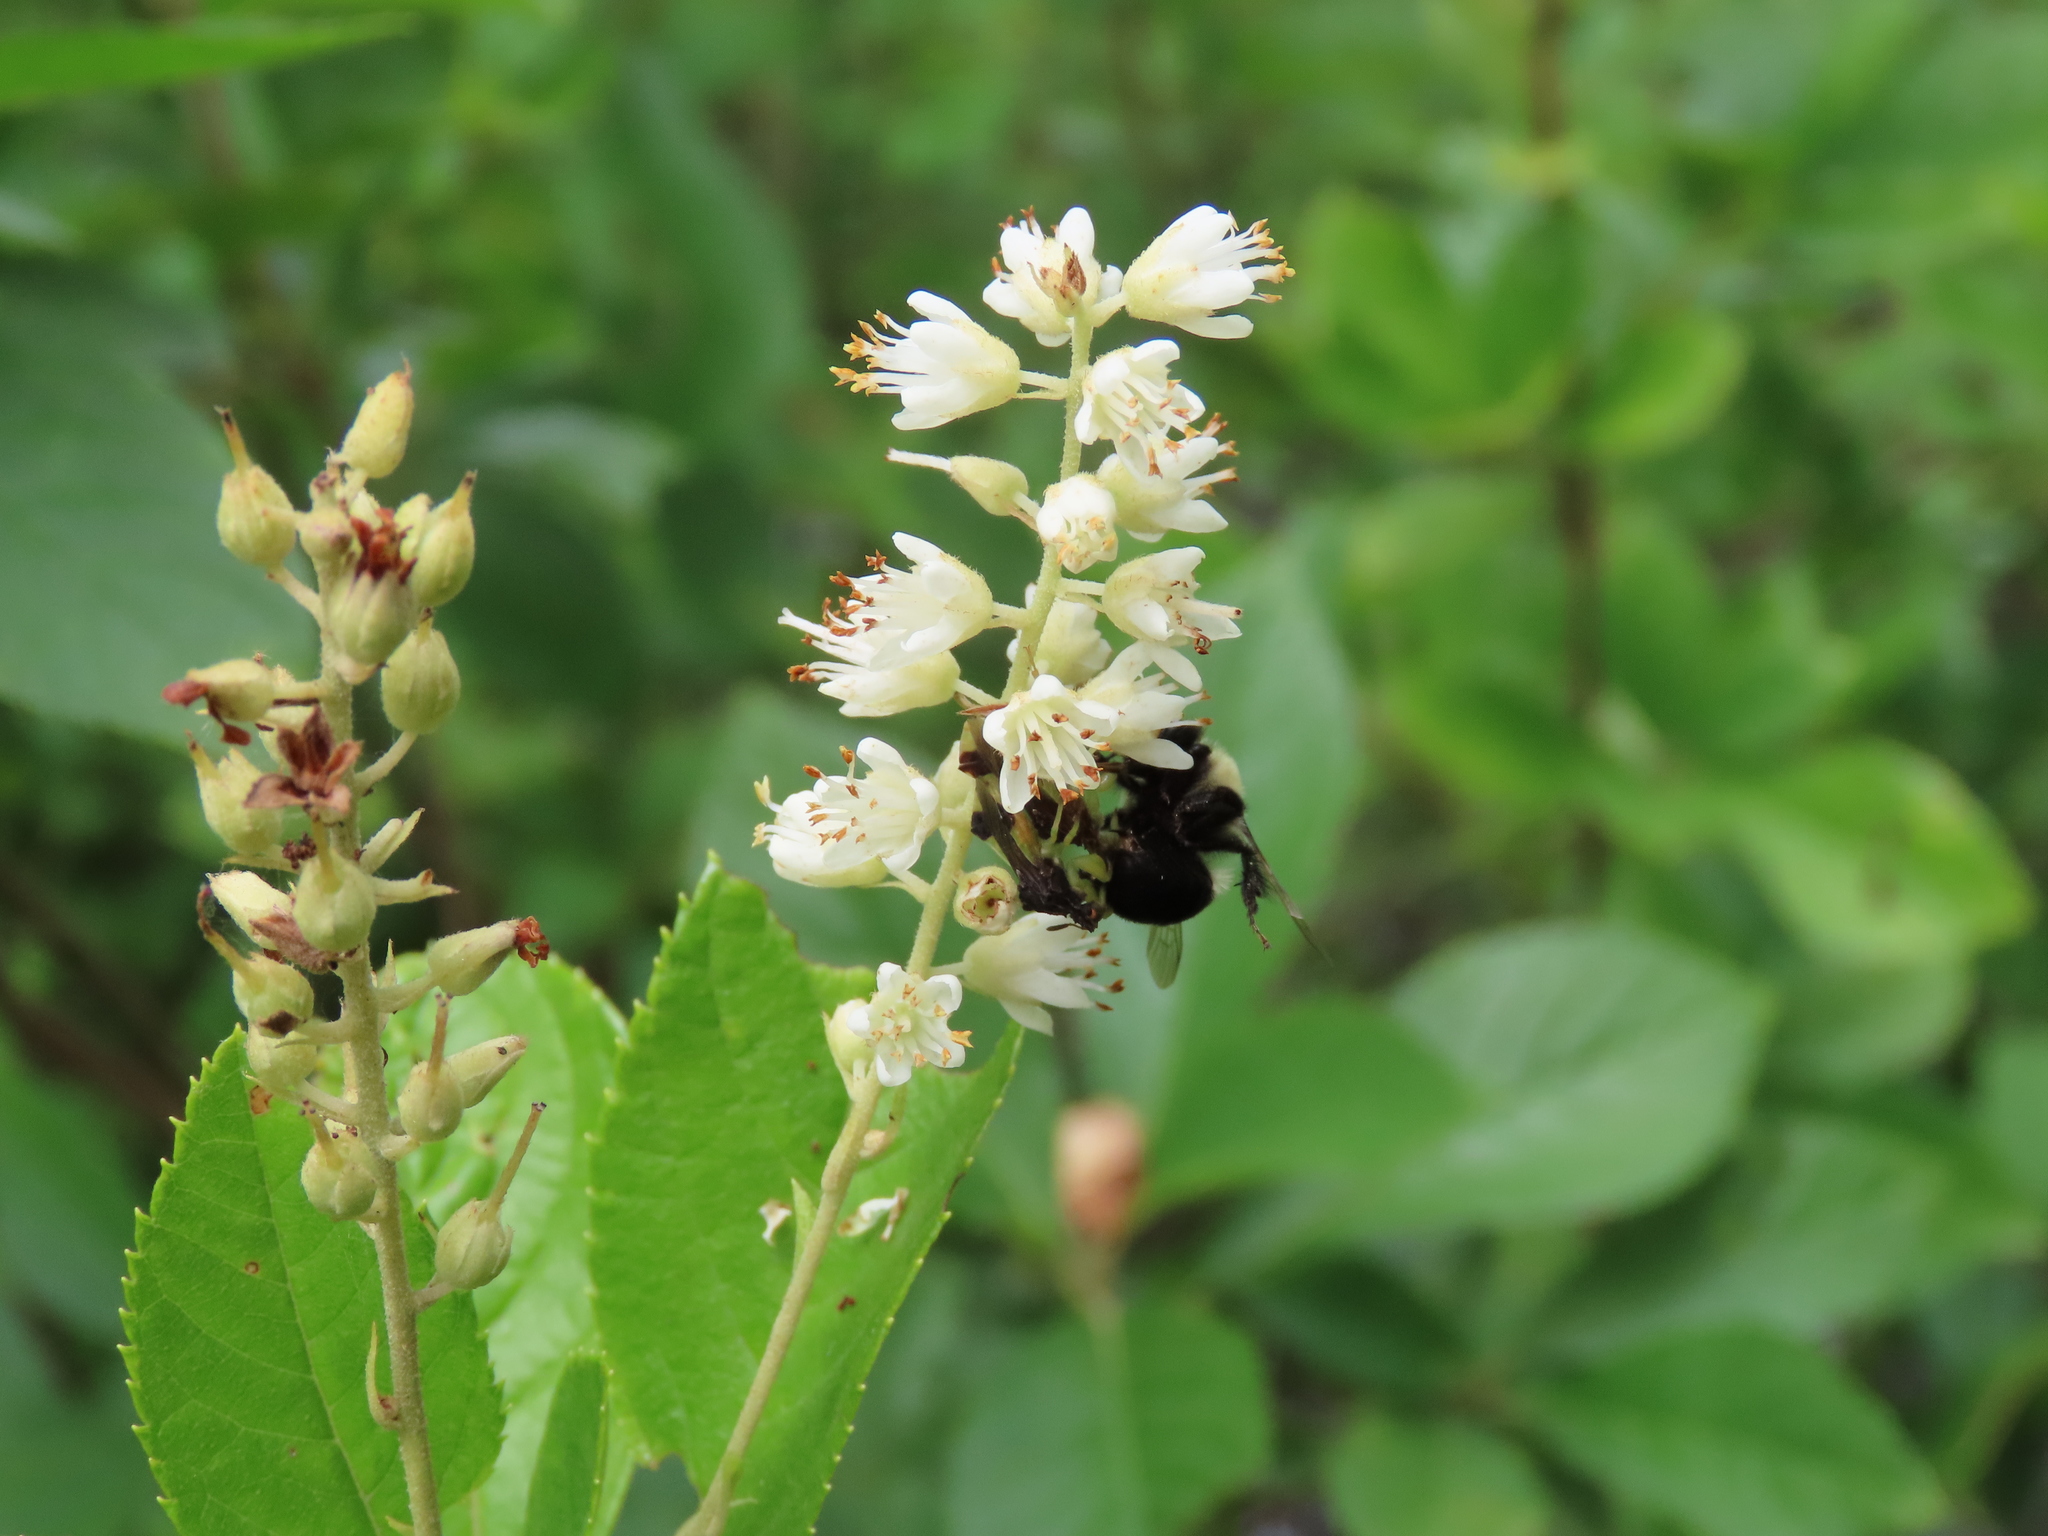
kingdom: Plantae
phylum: Tracheophyta
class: Magnoliopsida
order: Ericales
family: Clethraceae
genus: Clethra
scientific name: Clethra alnifolia
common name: Sweet pepperbush
